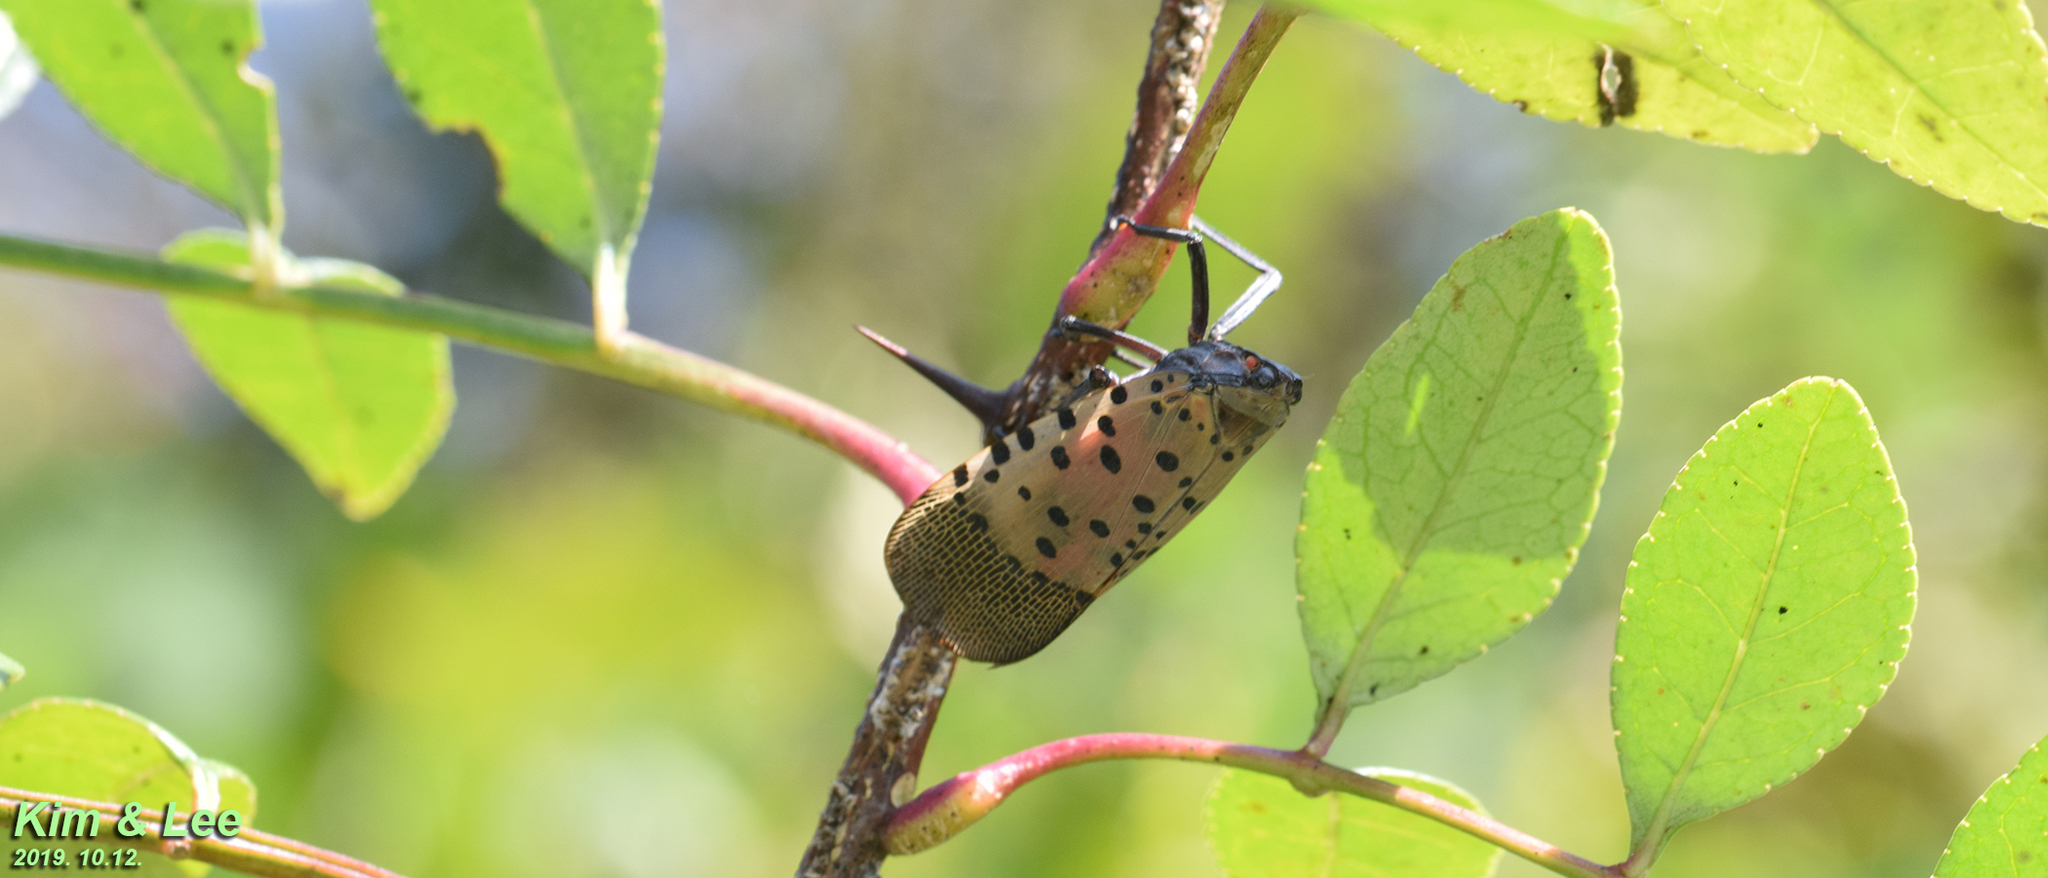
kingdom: Animalia
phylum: Arthropoda
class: Insecta
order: Hemiptera
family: Fulgoridae
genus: Lycorma
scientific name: Lycorma delicatula
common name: Spotted lanternfly
